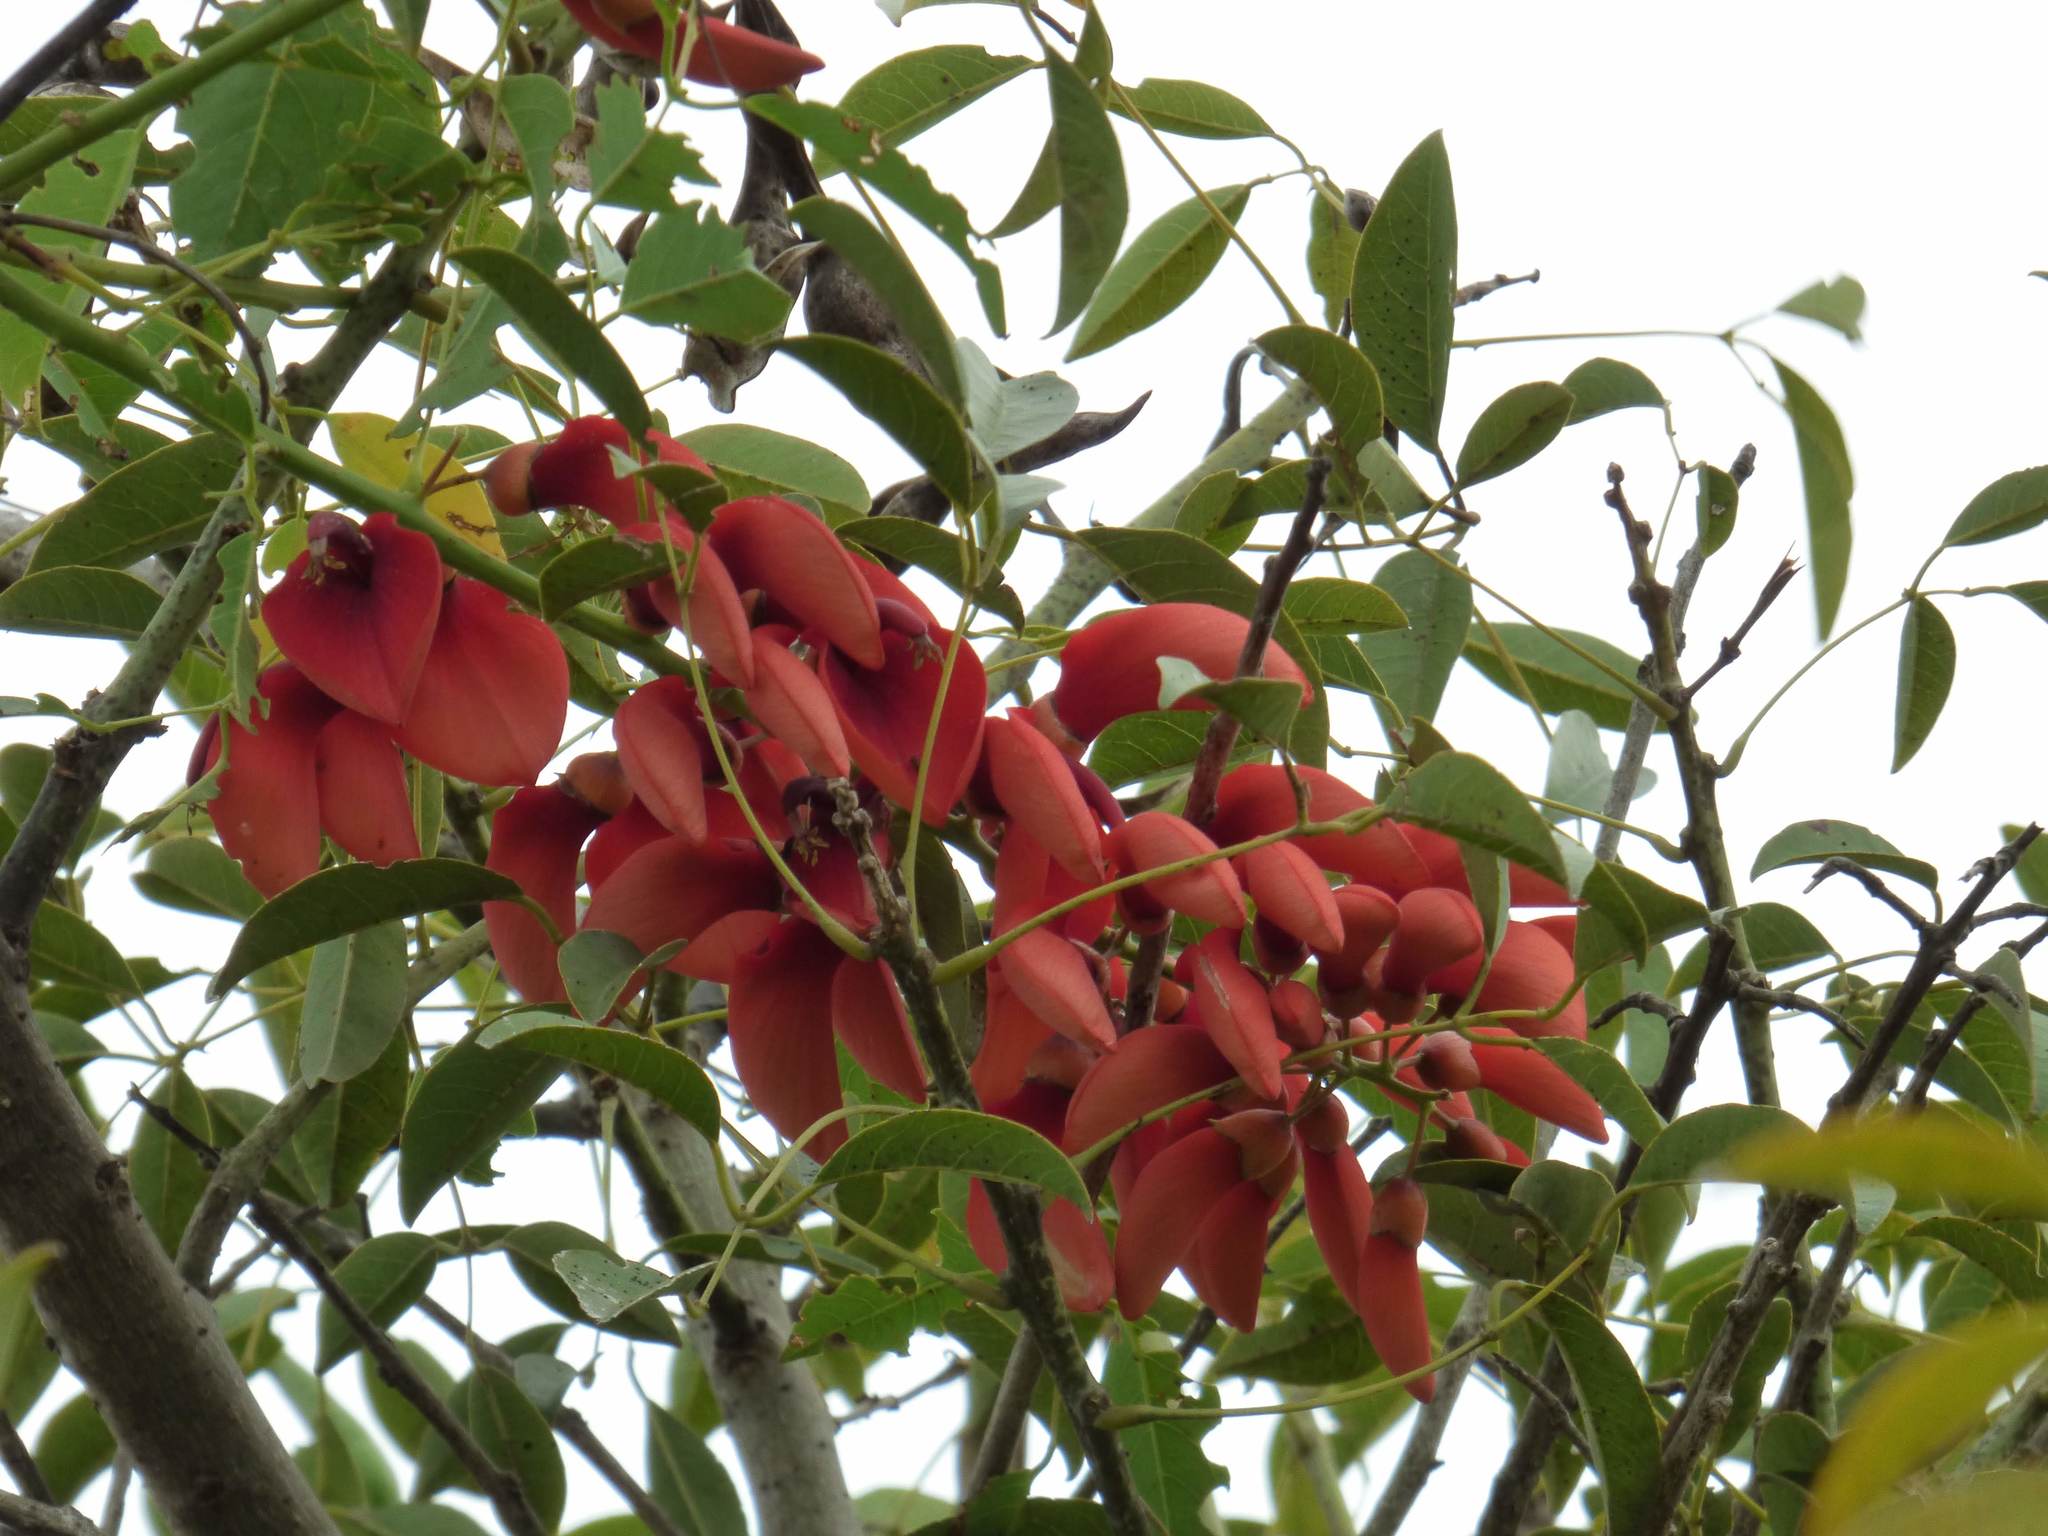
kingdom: Plantae
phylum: Tracheophyta
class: Magnoliopsida
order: Fabales
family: Fabaceae
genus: Erythrina
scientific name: Erythrina crista-galli
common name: Cockspur coral tree
